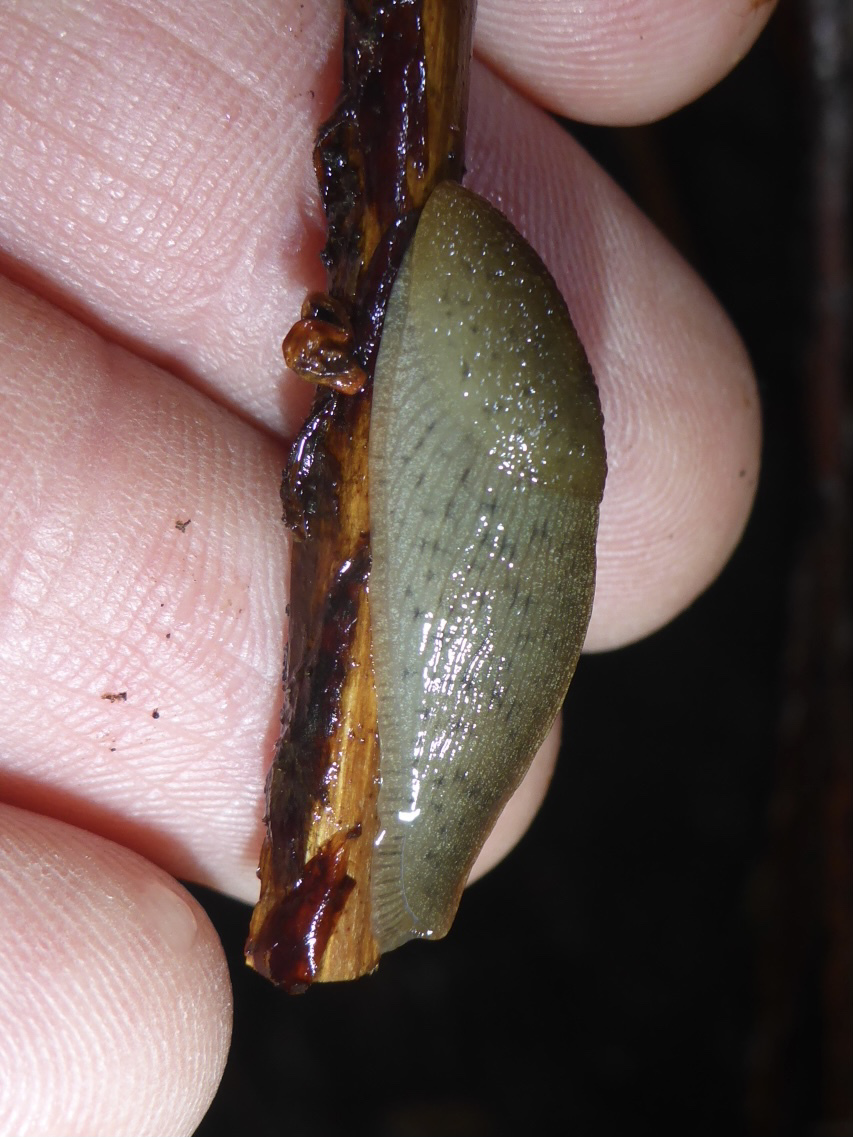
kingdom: Animalia
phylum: Mollusca
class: Gastropoda
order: Stylommatophora
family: Ariolimacidae
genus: Ariolimax
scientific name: Ariolimax buttoni
